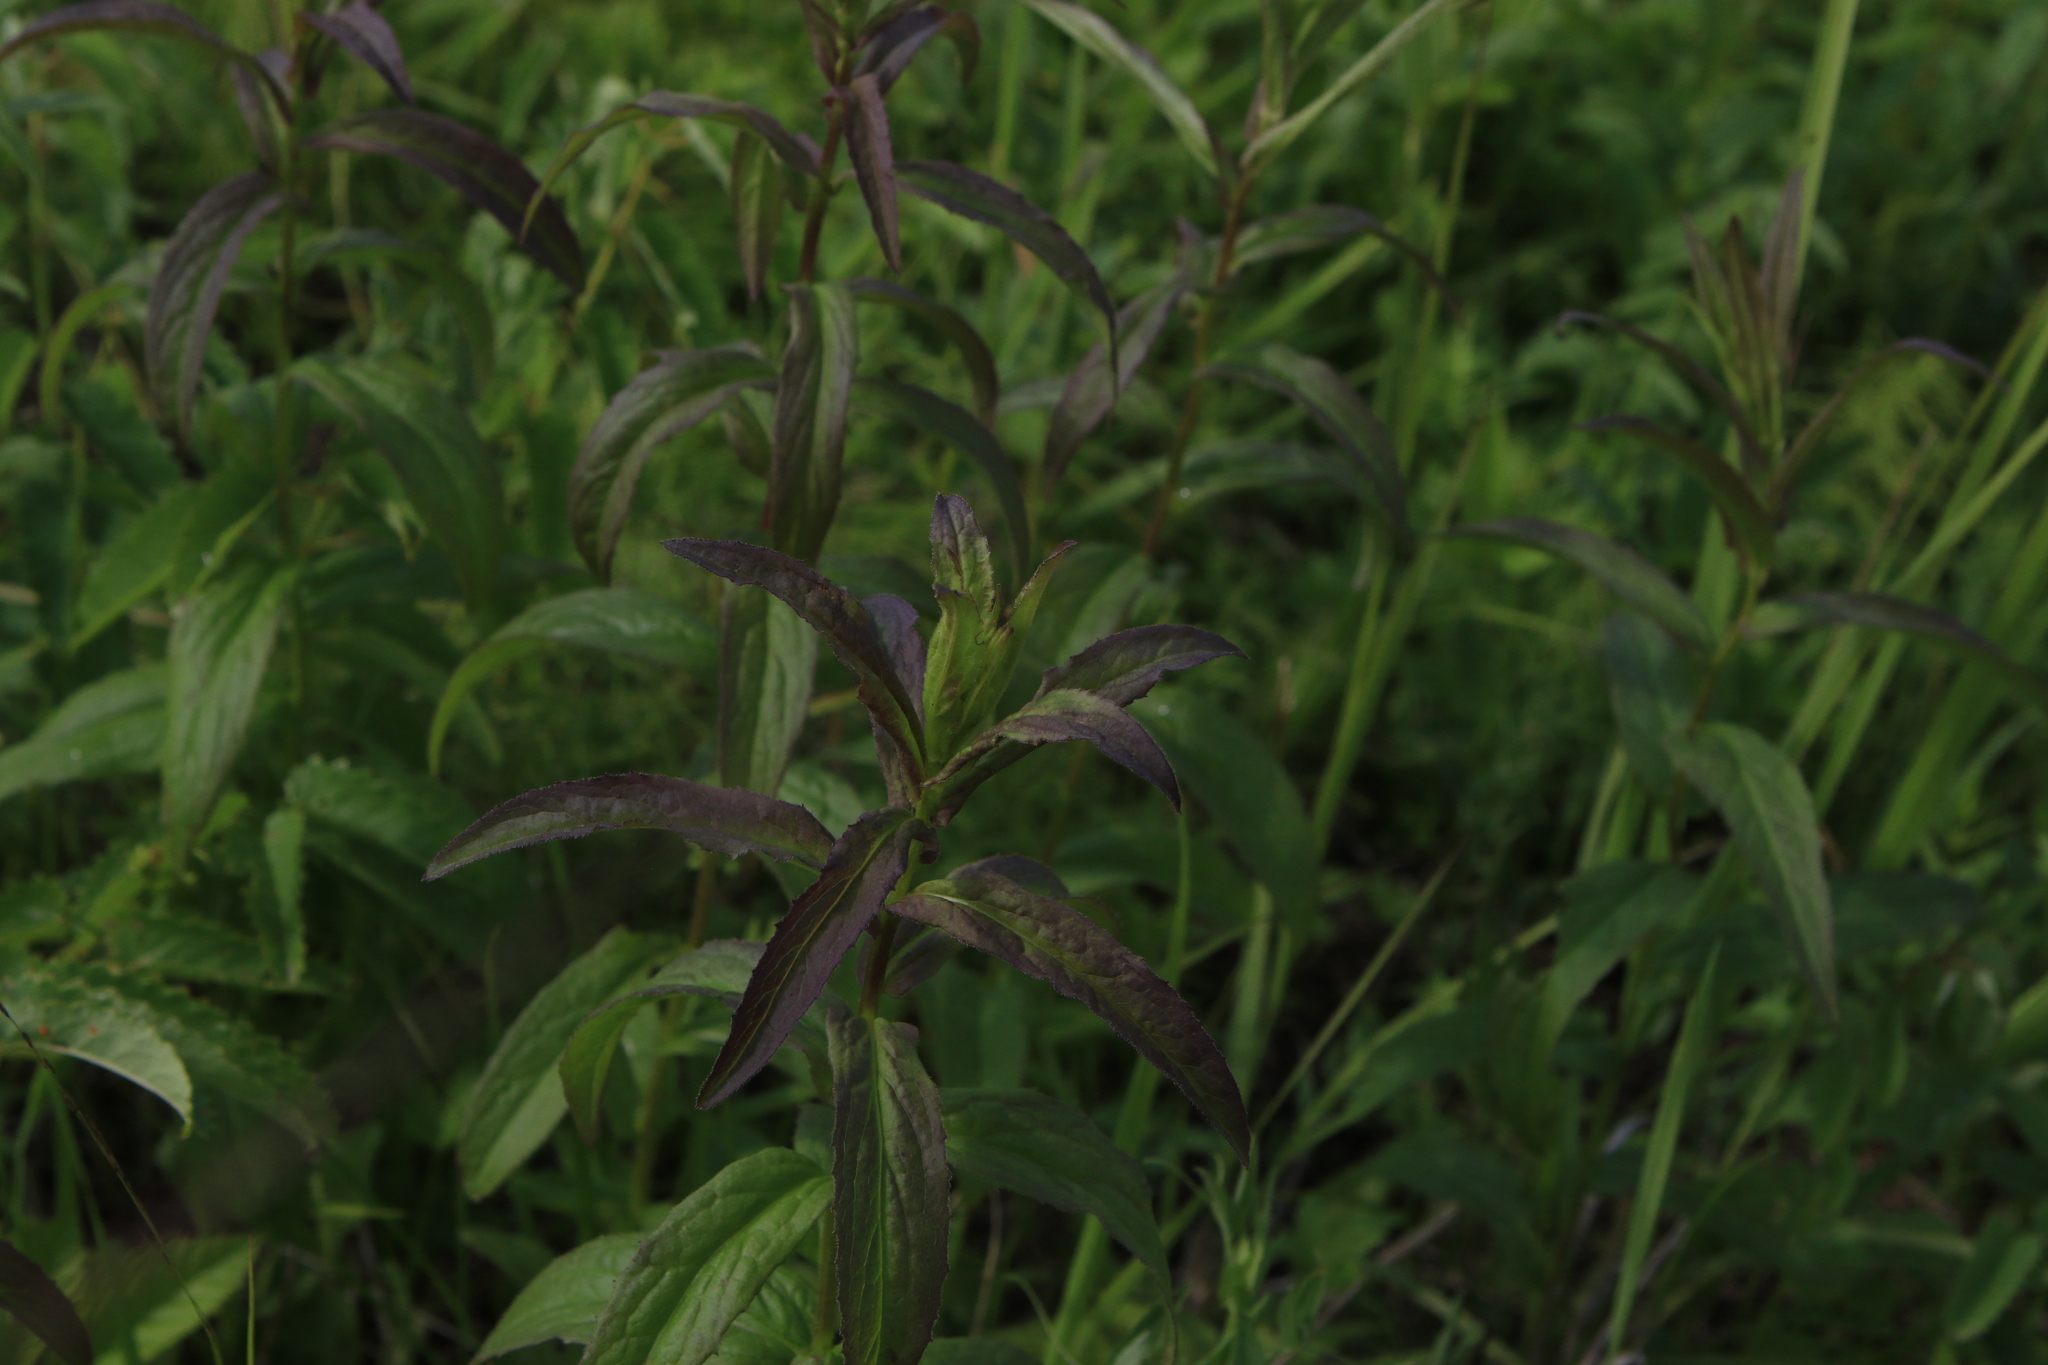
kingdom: Plantae
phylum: Tracheophyta
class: Magnoliopsida
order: Asterales
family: Asteraceae
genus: Pentanema
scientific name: Pentanema salicinum
